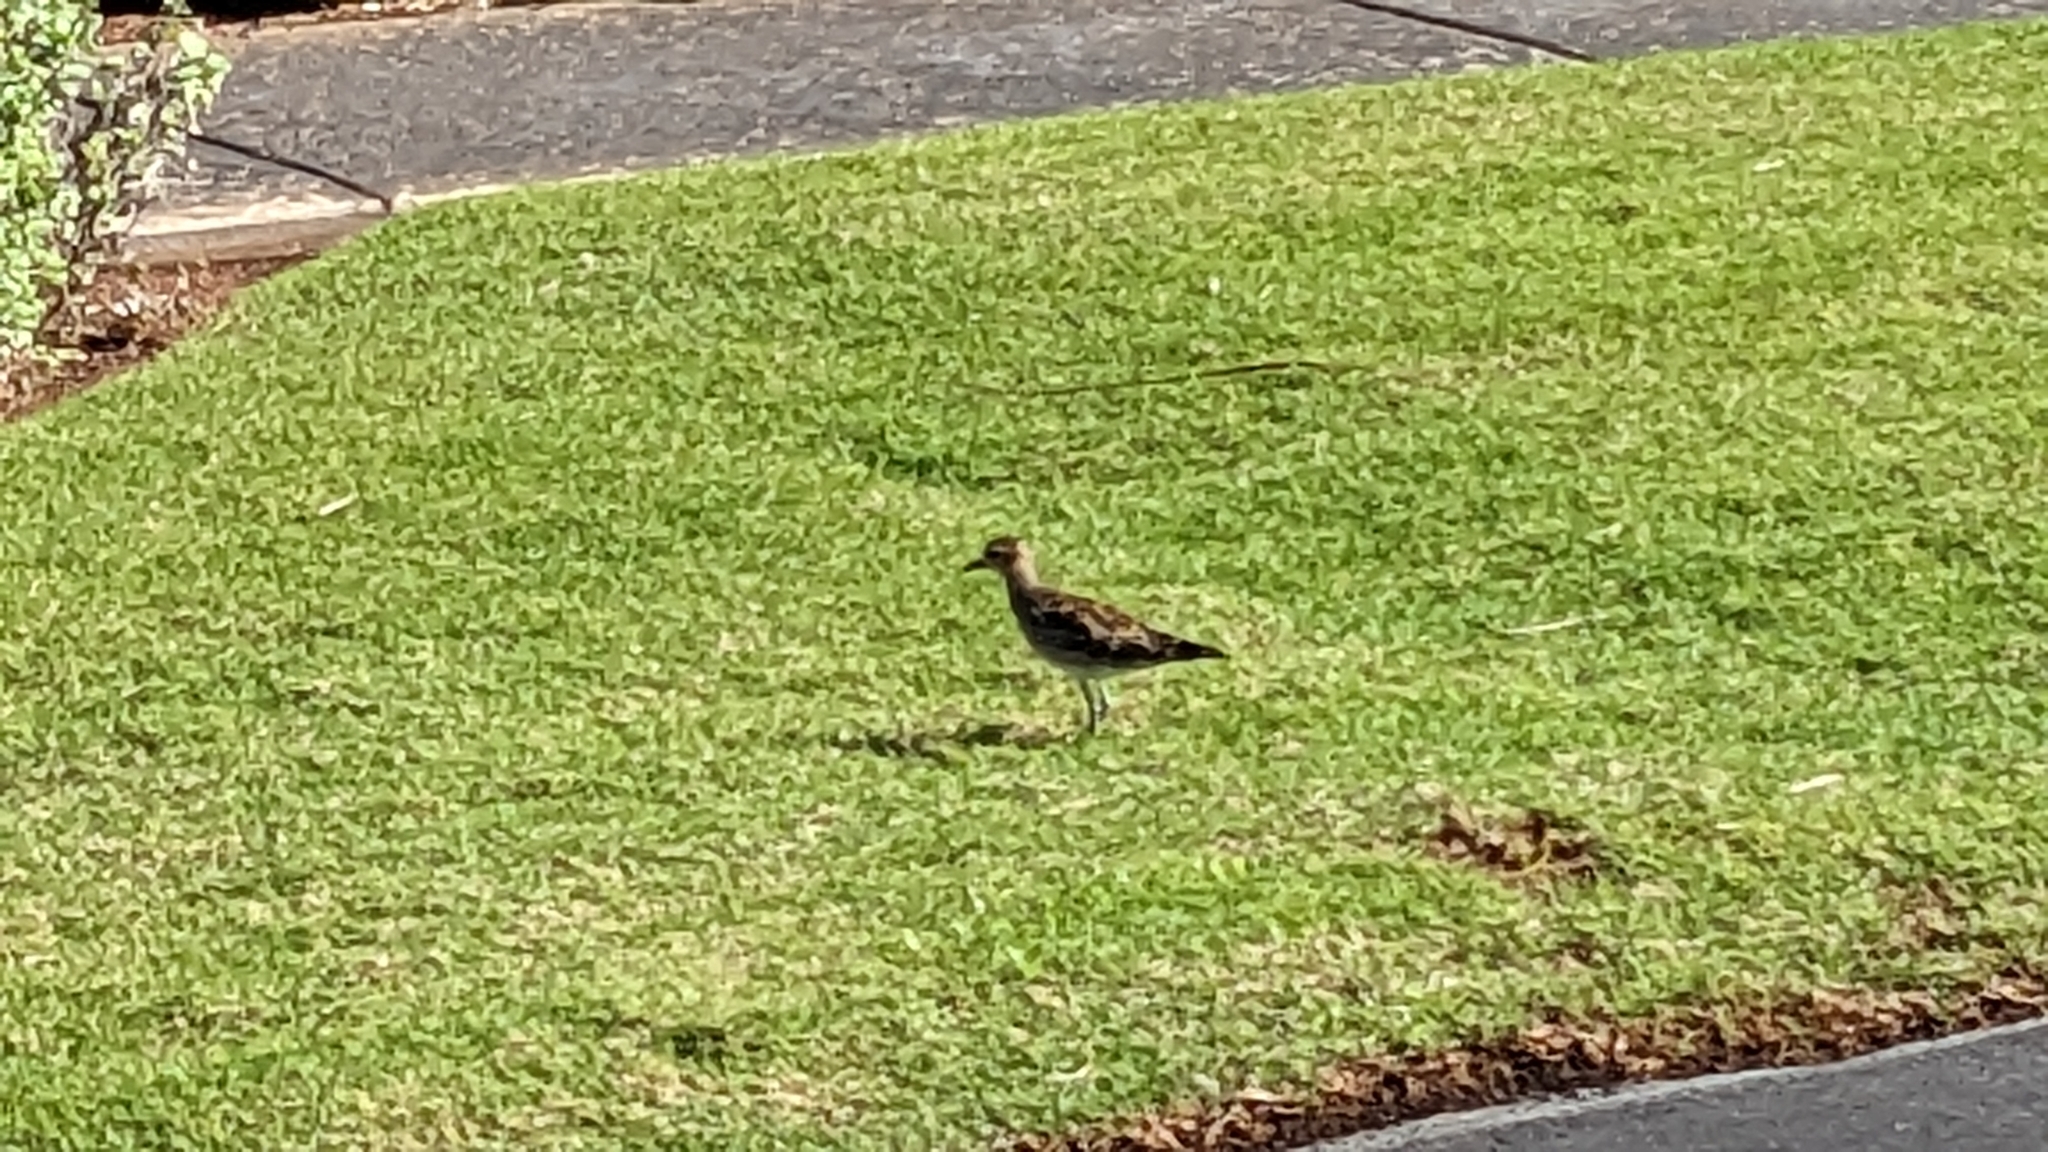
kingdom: Animalia
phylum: Chordata
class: Aves
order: Charadriiformes
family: Charadriidae
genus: Pluvialis
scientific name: Pluvialis fulva
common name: Pacific golden plover
